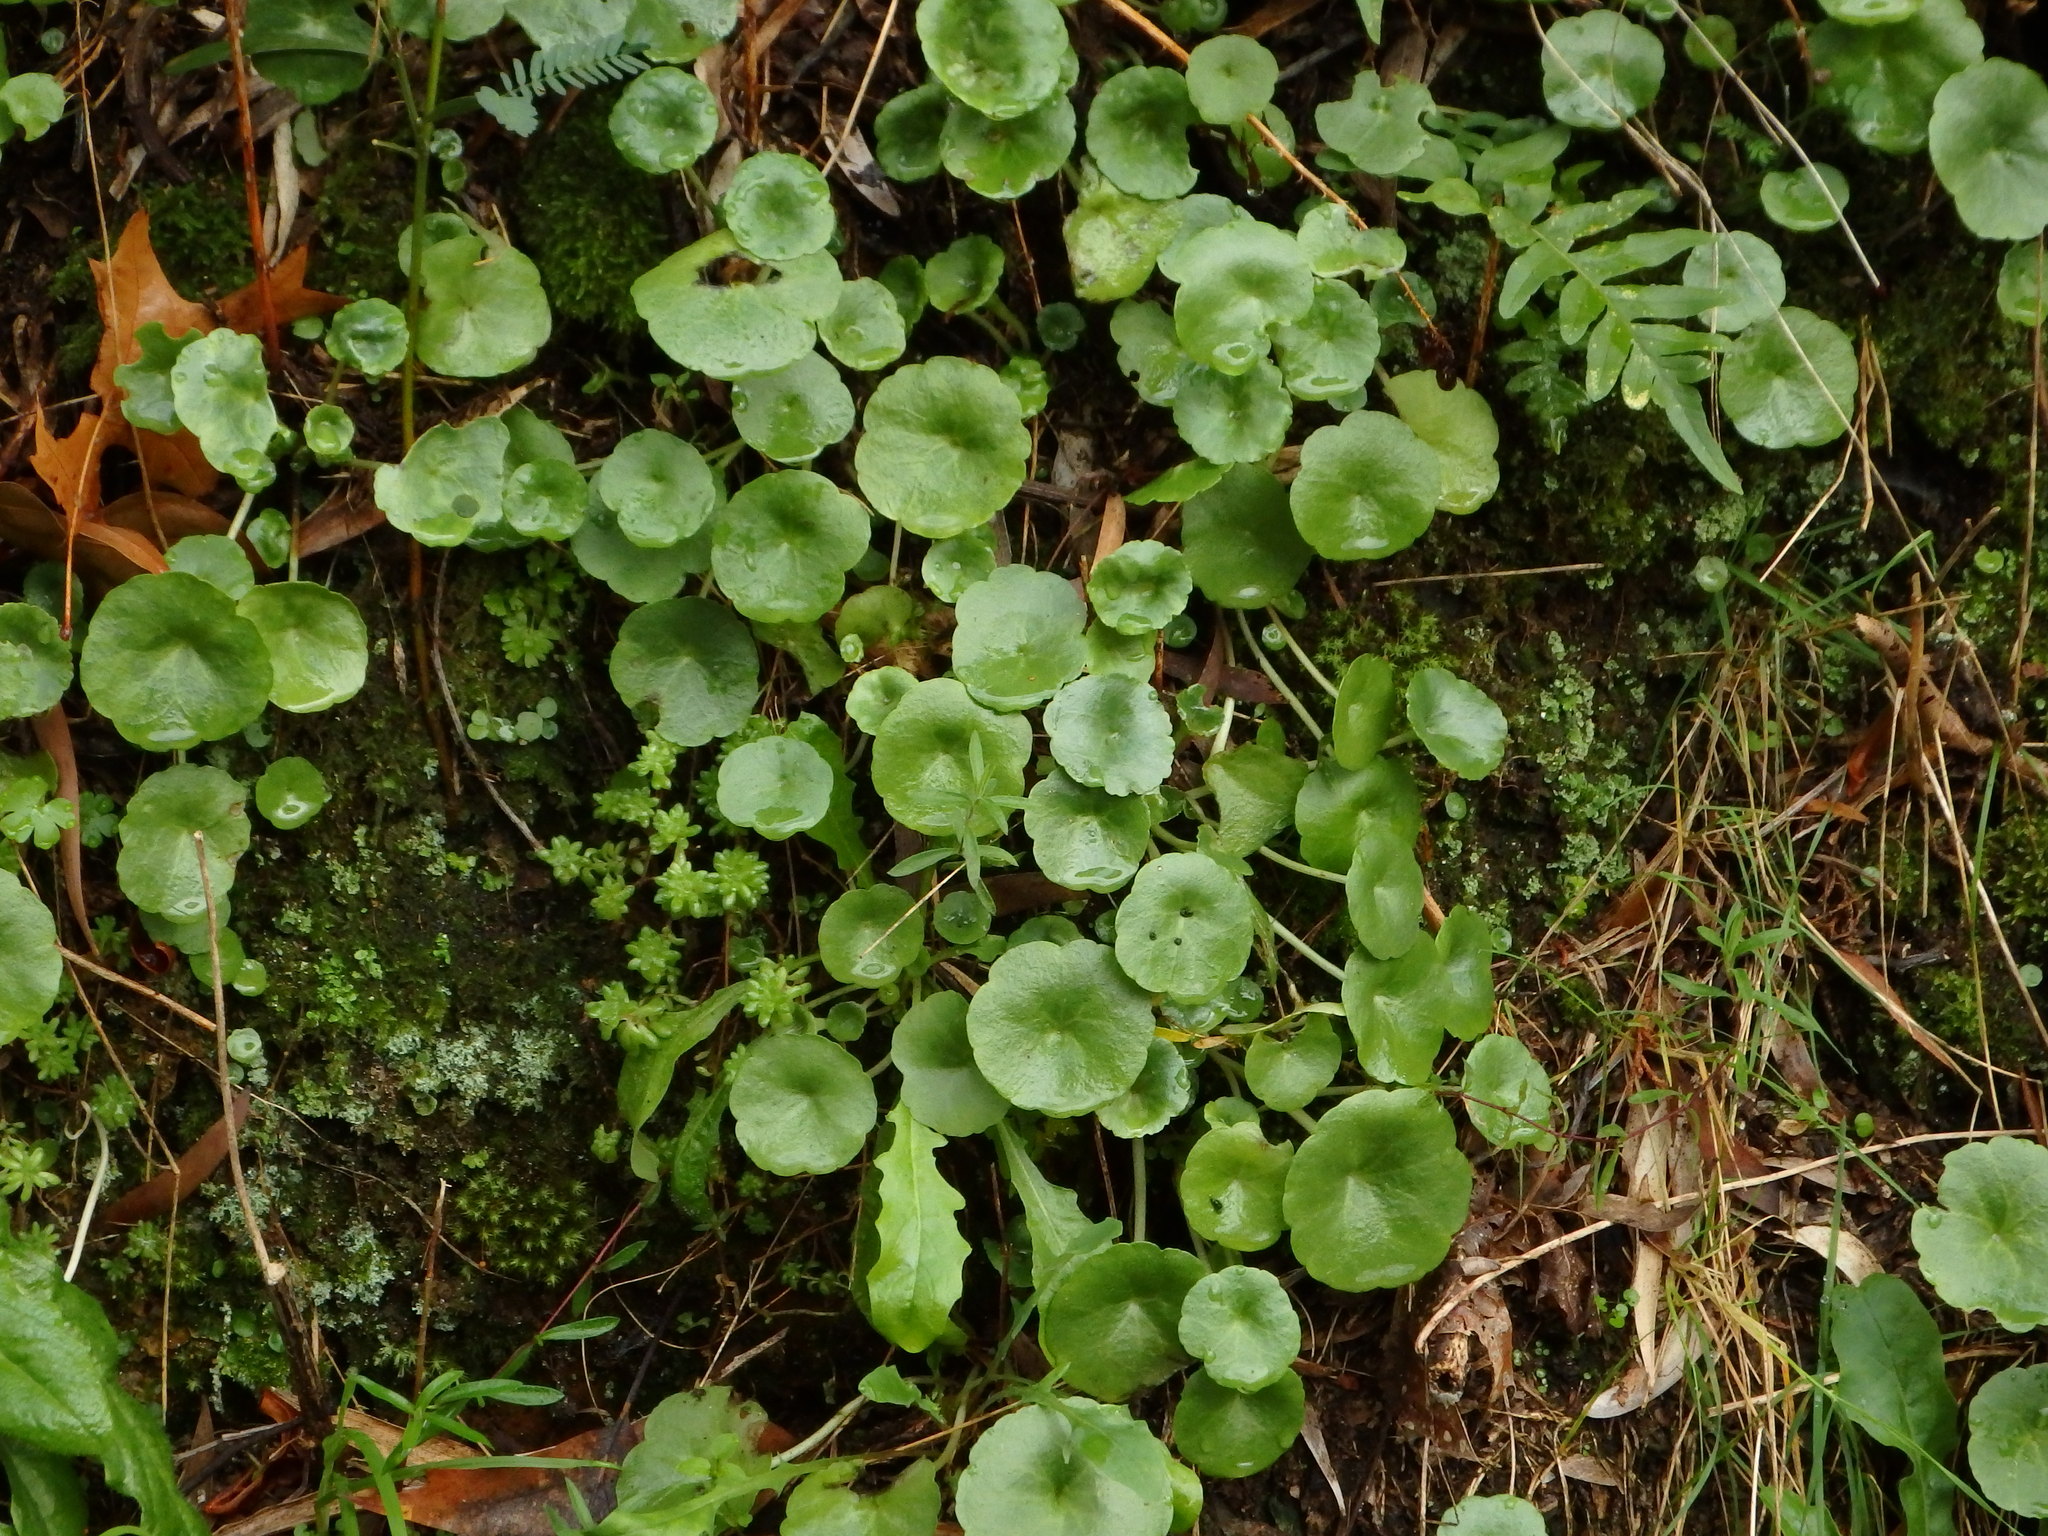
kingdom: Plantae
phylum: Tracheophyta
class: Magnoliopsida
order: Saxifragales
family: Crassulaceae
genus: Umbilicus
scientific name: Umbilicus rupestris
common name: Navelwort
